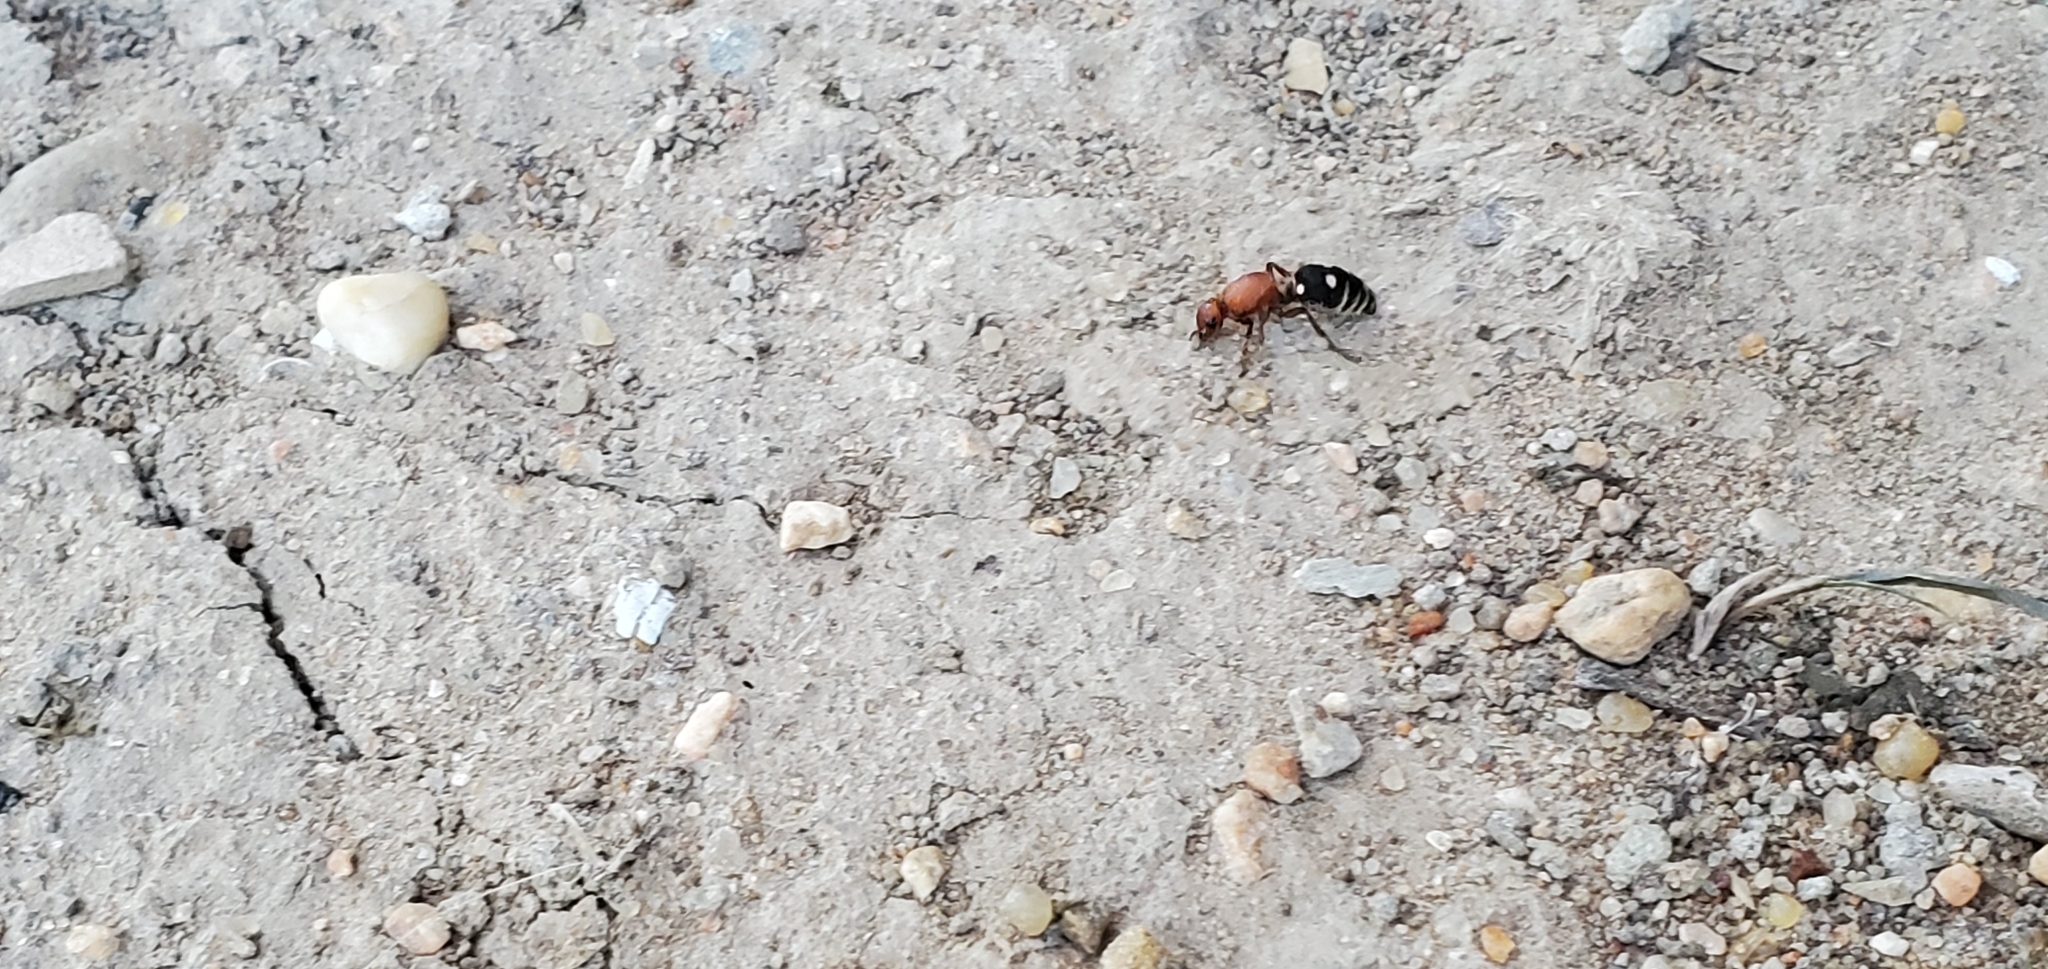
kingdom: Animalia
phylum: Arthropoda
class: Insecta
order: Hymenoptera
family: Mutillidae
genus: Dasymutilla
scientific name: Dasymutilla
